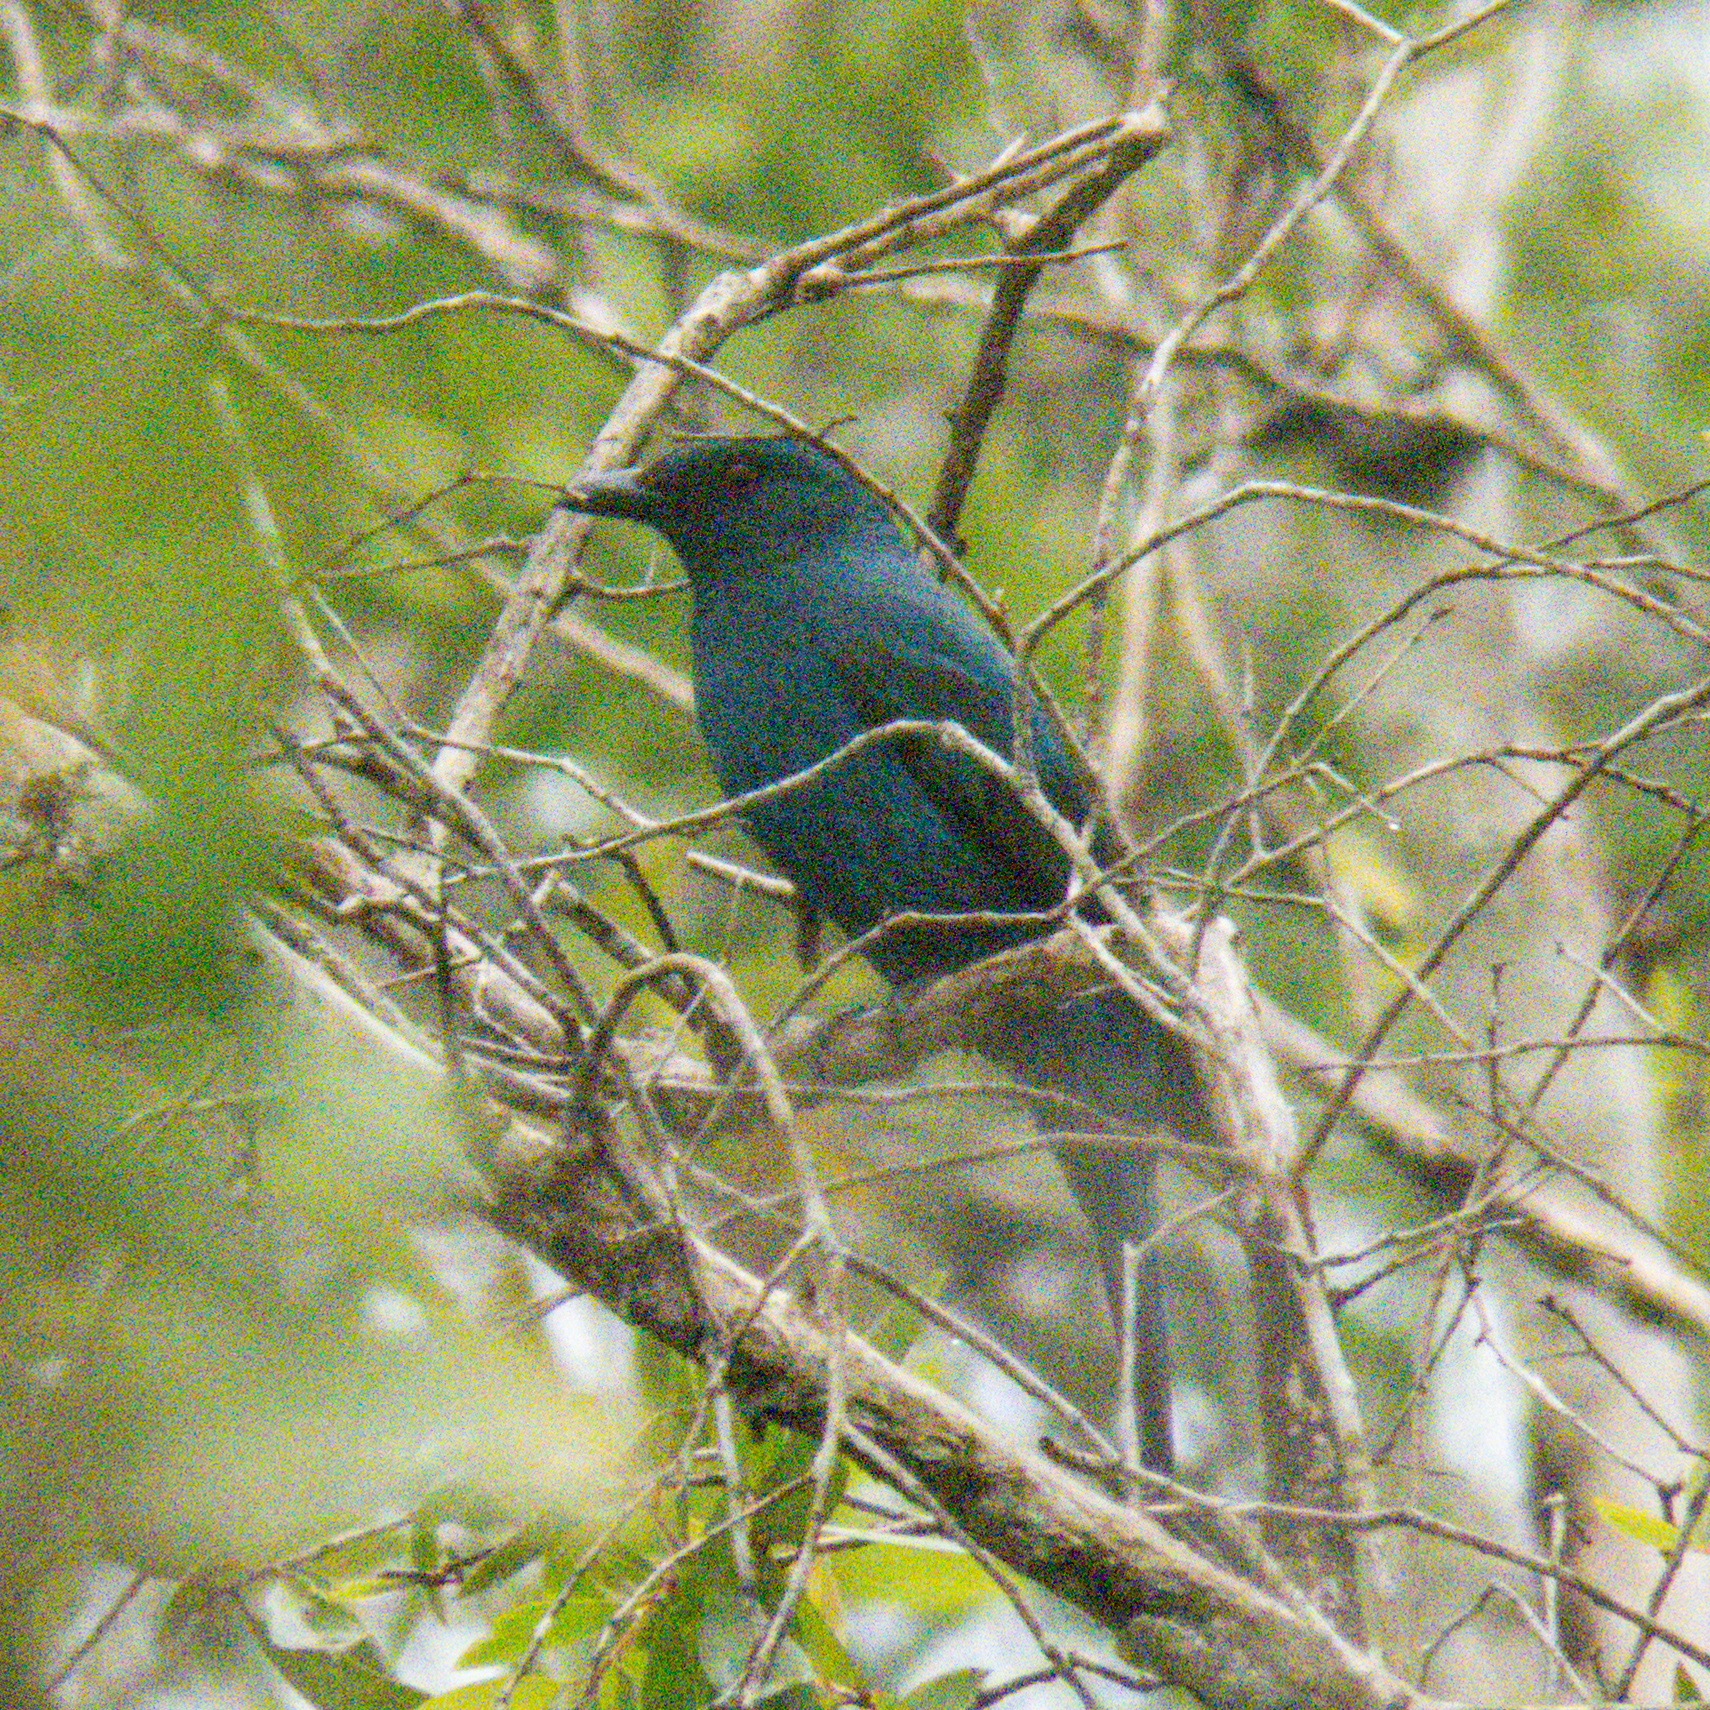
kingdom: Animalia
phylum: Chordata
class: Aves
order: Passeriformes
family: Irenidae
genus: Irena
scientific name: Irena puella
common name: Asian fairy-bluebird
